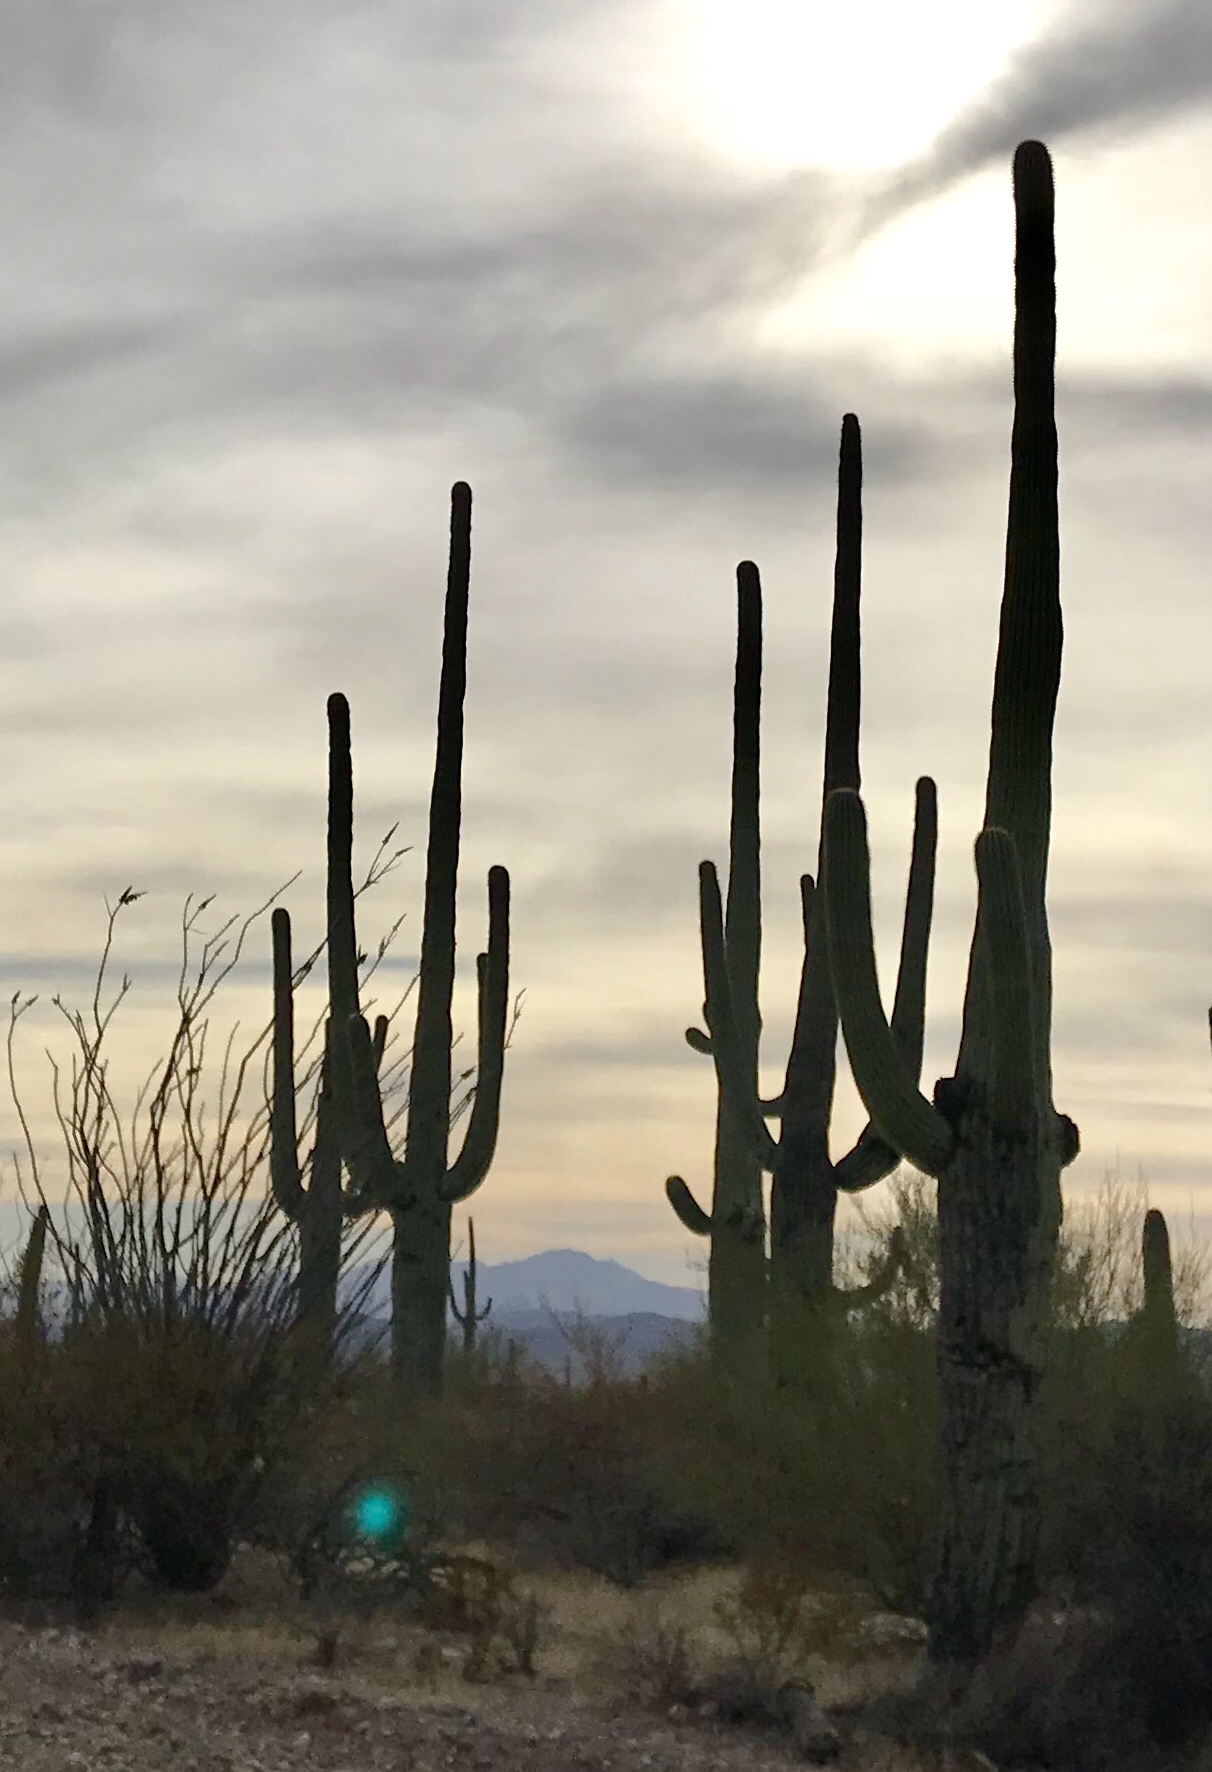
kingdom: Plantae
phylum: Tracheophyta
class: Magnoliopsida
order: Caryophyllales
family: Cactaceae
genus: Carnegiea
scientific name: Carnegiea gigantea
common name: Saguaro
